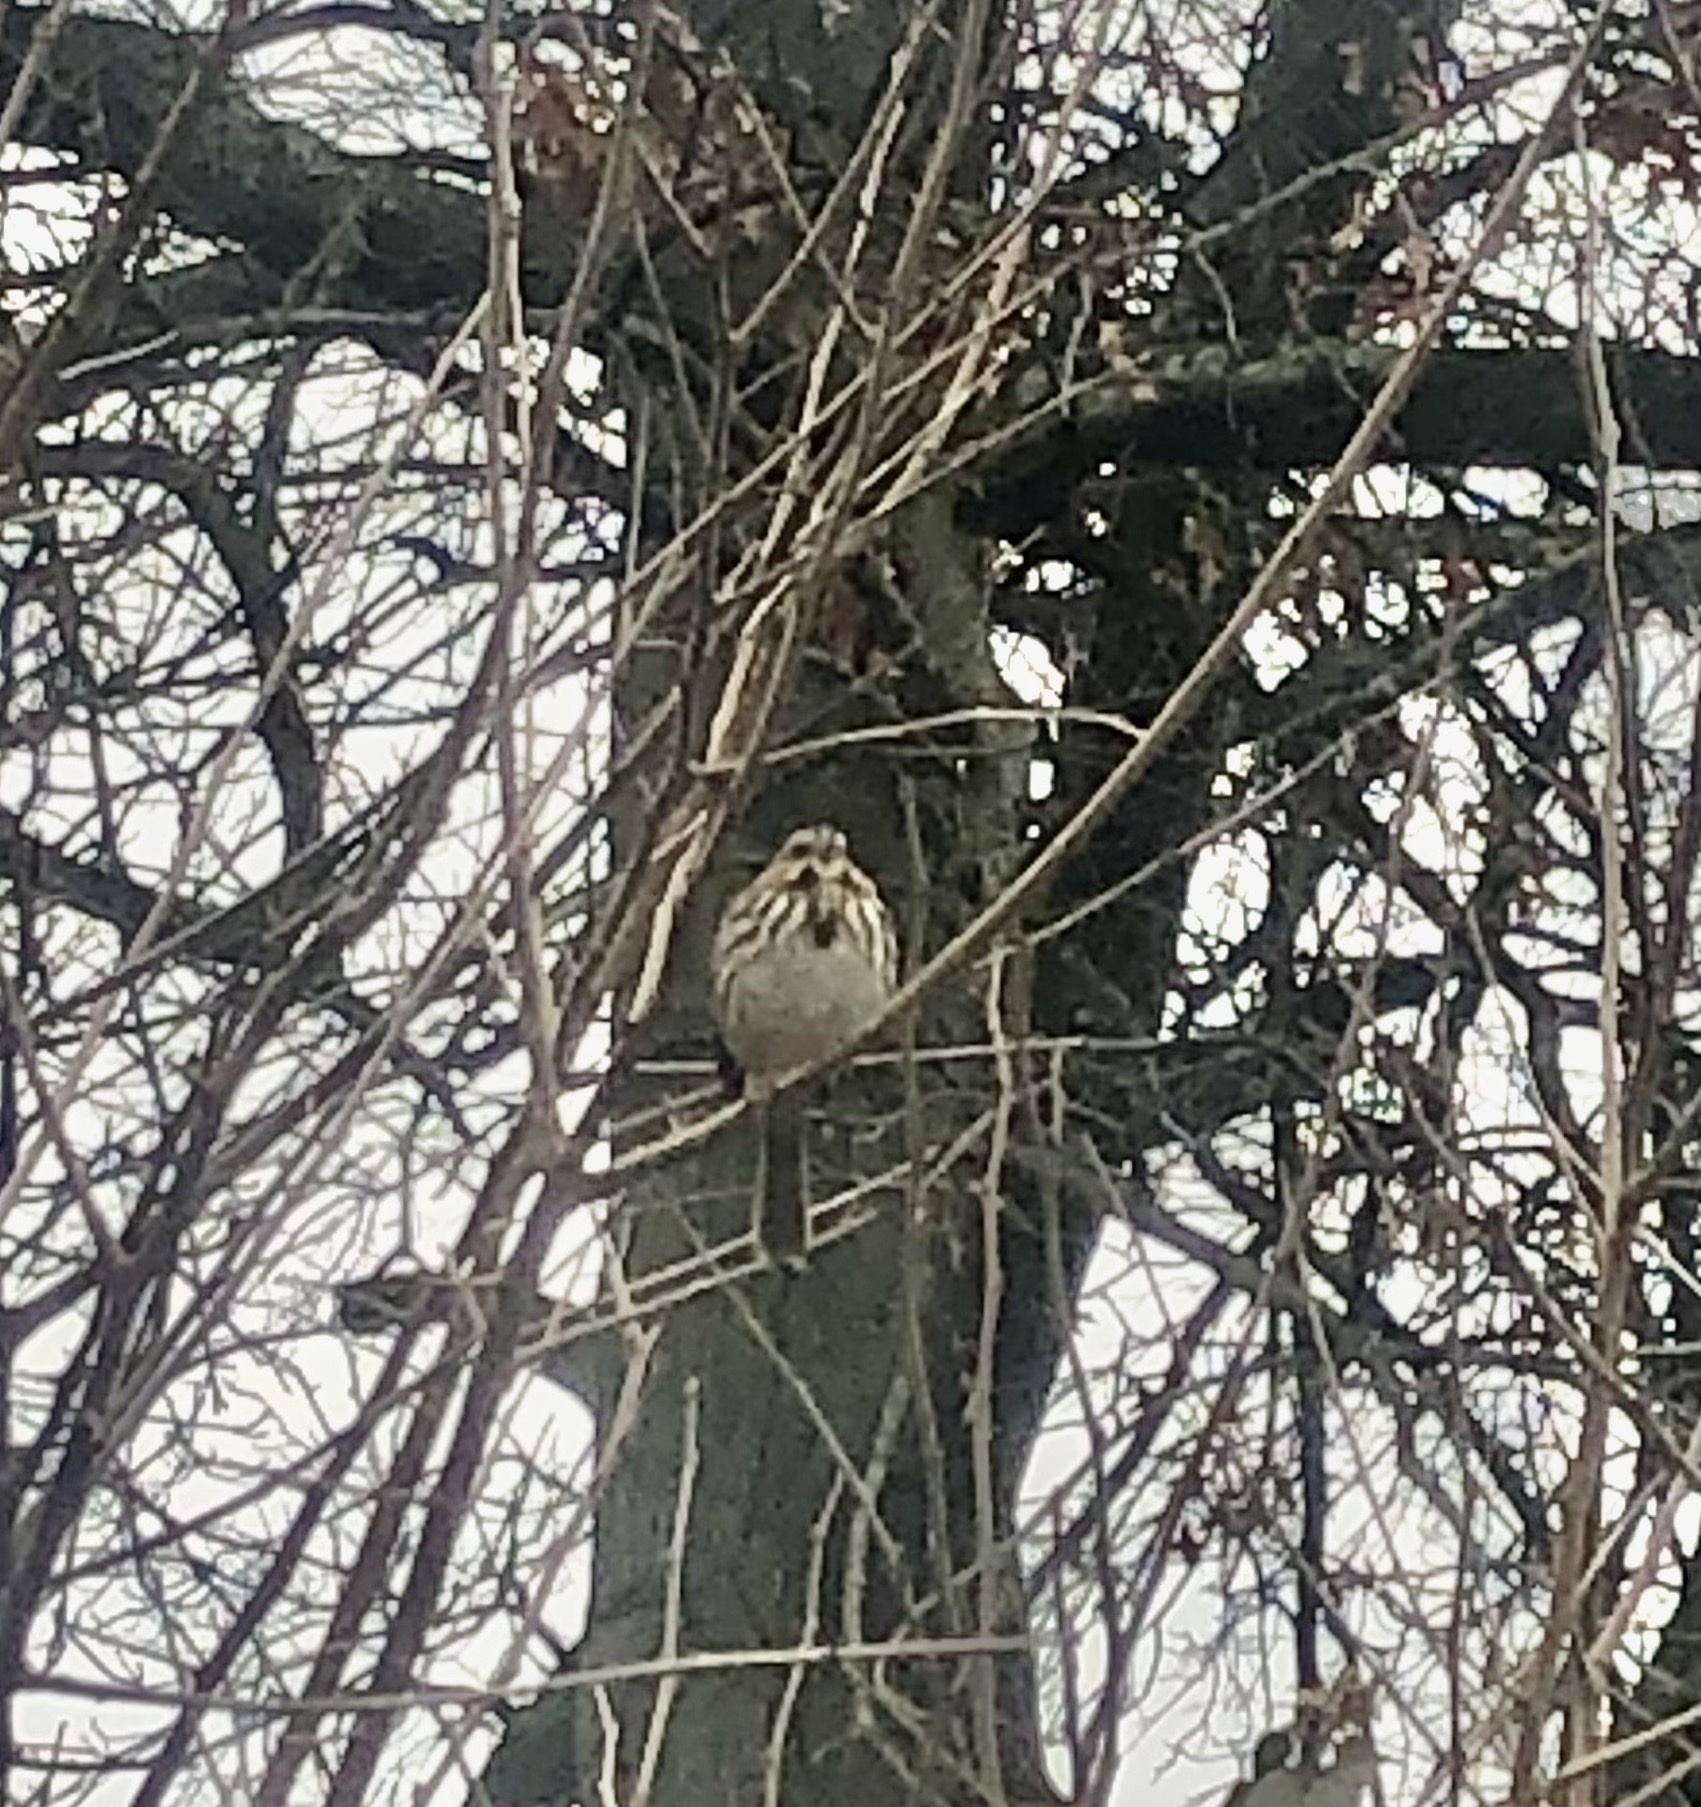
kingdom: Animalia
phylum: Chordata
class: Aves
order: Passeriformes
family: Passerellidae
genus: Melospiza
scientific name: Melospiza melodia
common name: Song sparrow
